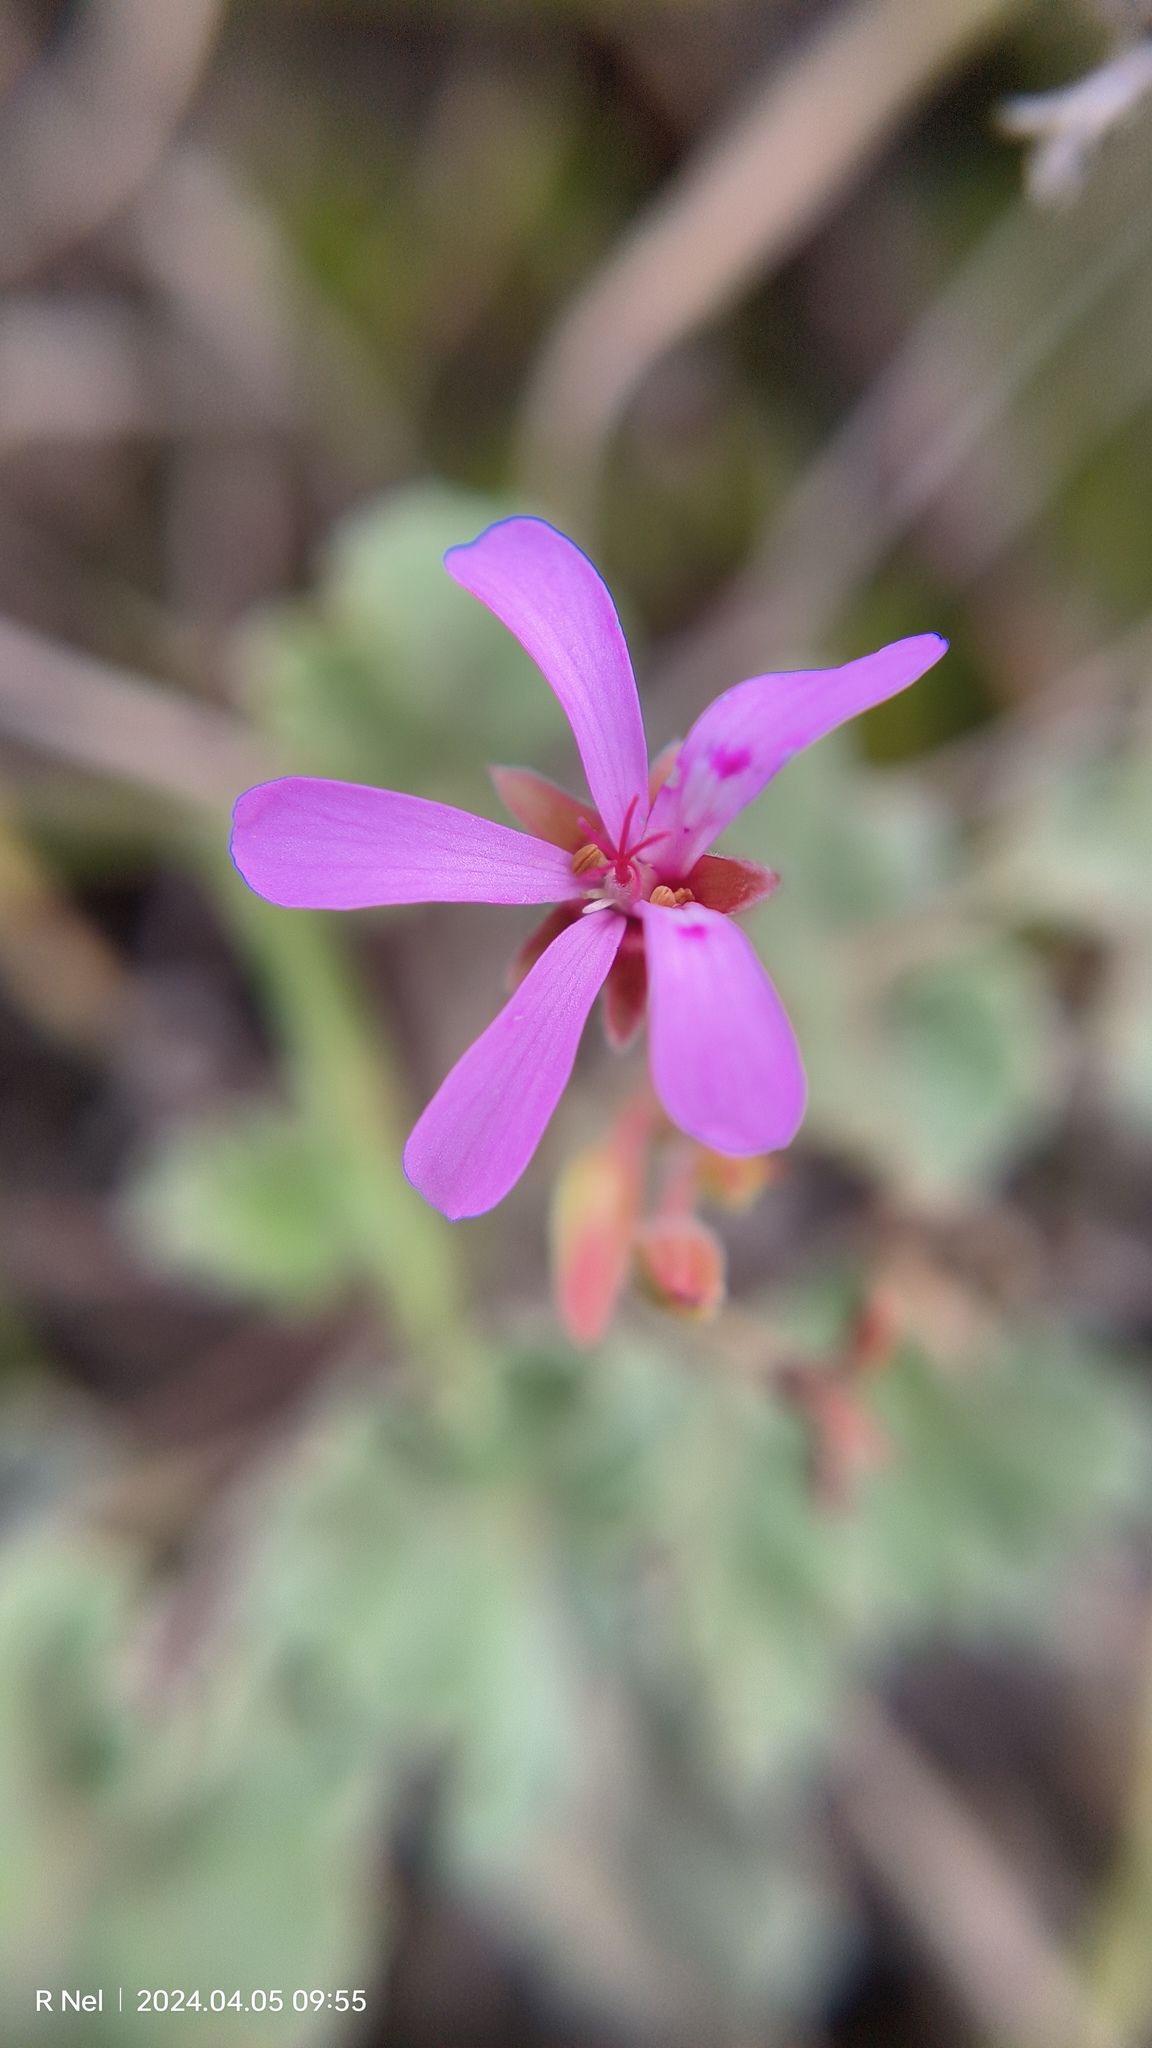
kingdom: Plantae
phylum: Tracheophyta
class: Magnoliopsida
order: Geraniales
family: Geraniaceae
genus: Pelargonium
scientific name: Pelargonium reniforme
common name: Kidney-leaf pelargonium
